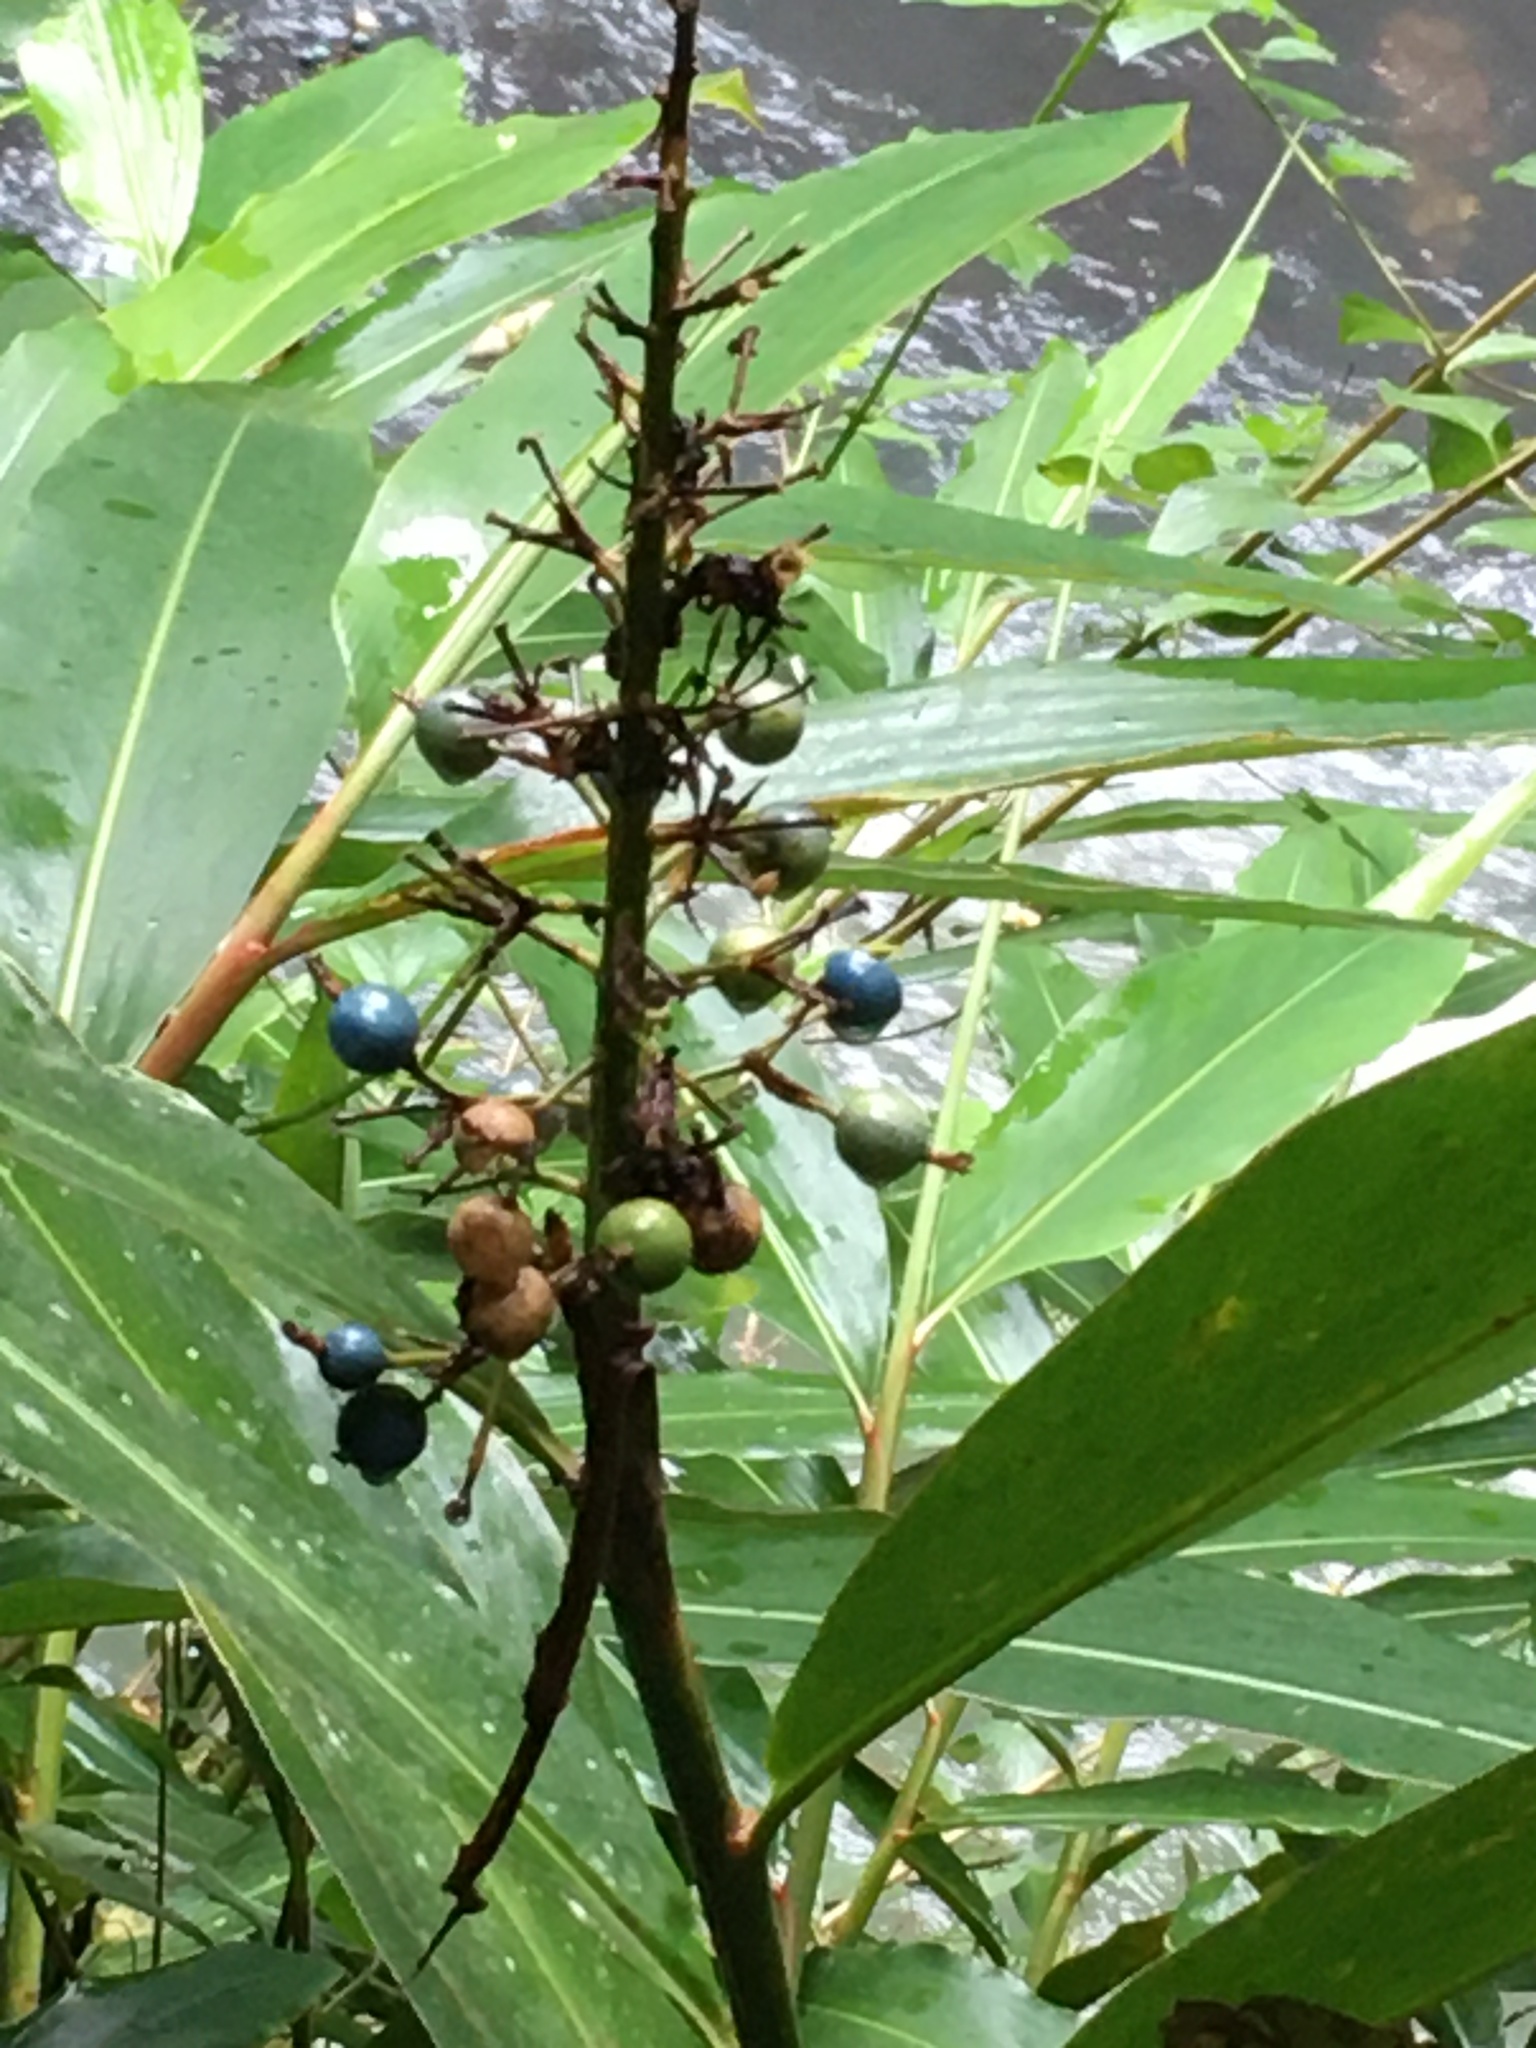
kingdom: Plantae
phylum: Tracheophyta
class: Liliopsida
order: Zingiberales
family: Zingiberaceae
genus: Alpinia
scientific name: Alpinia caerulea
